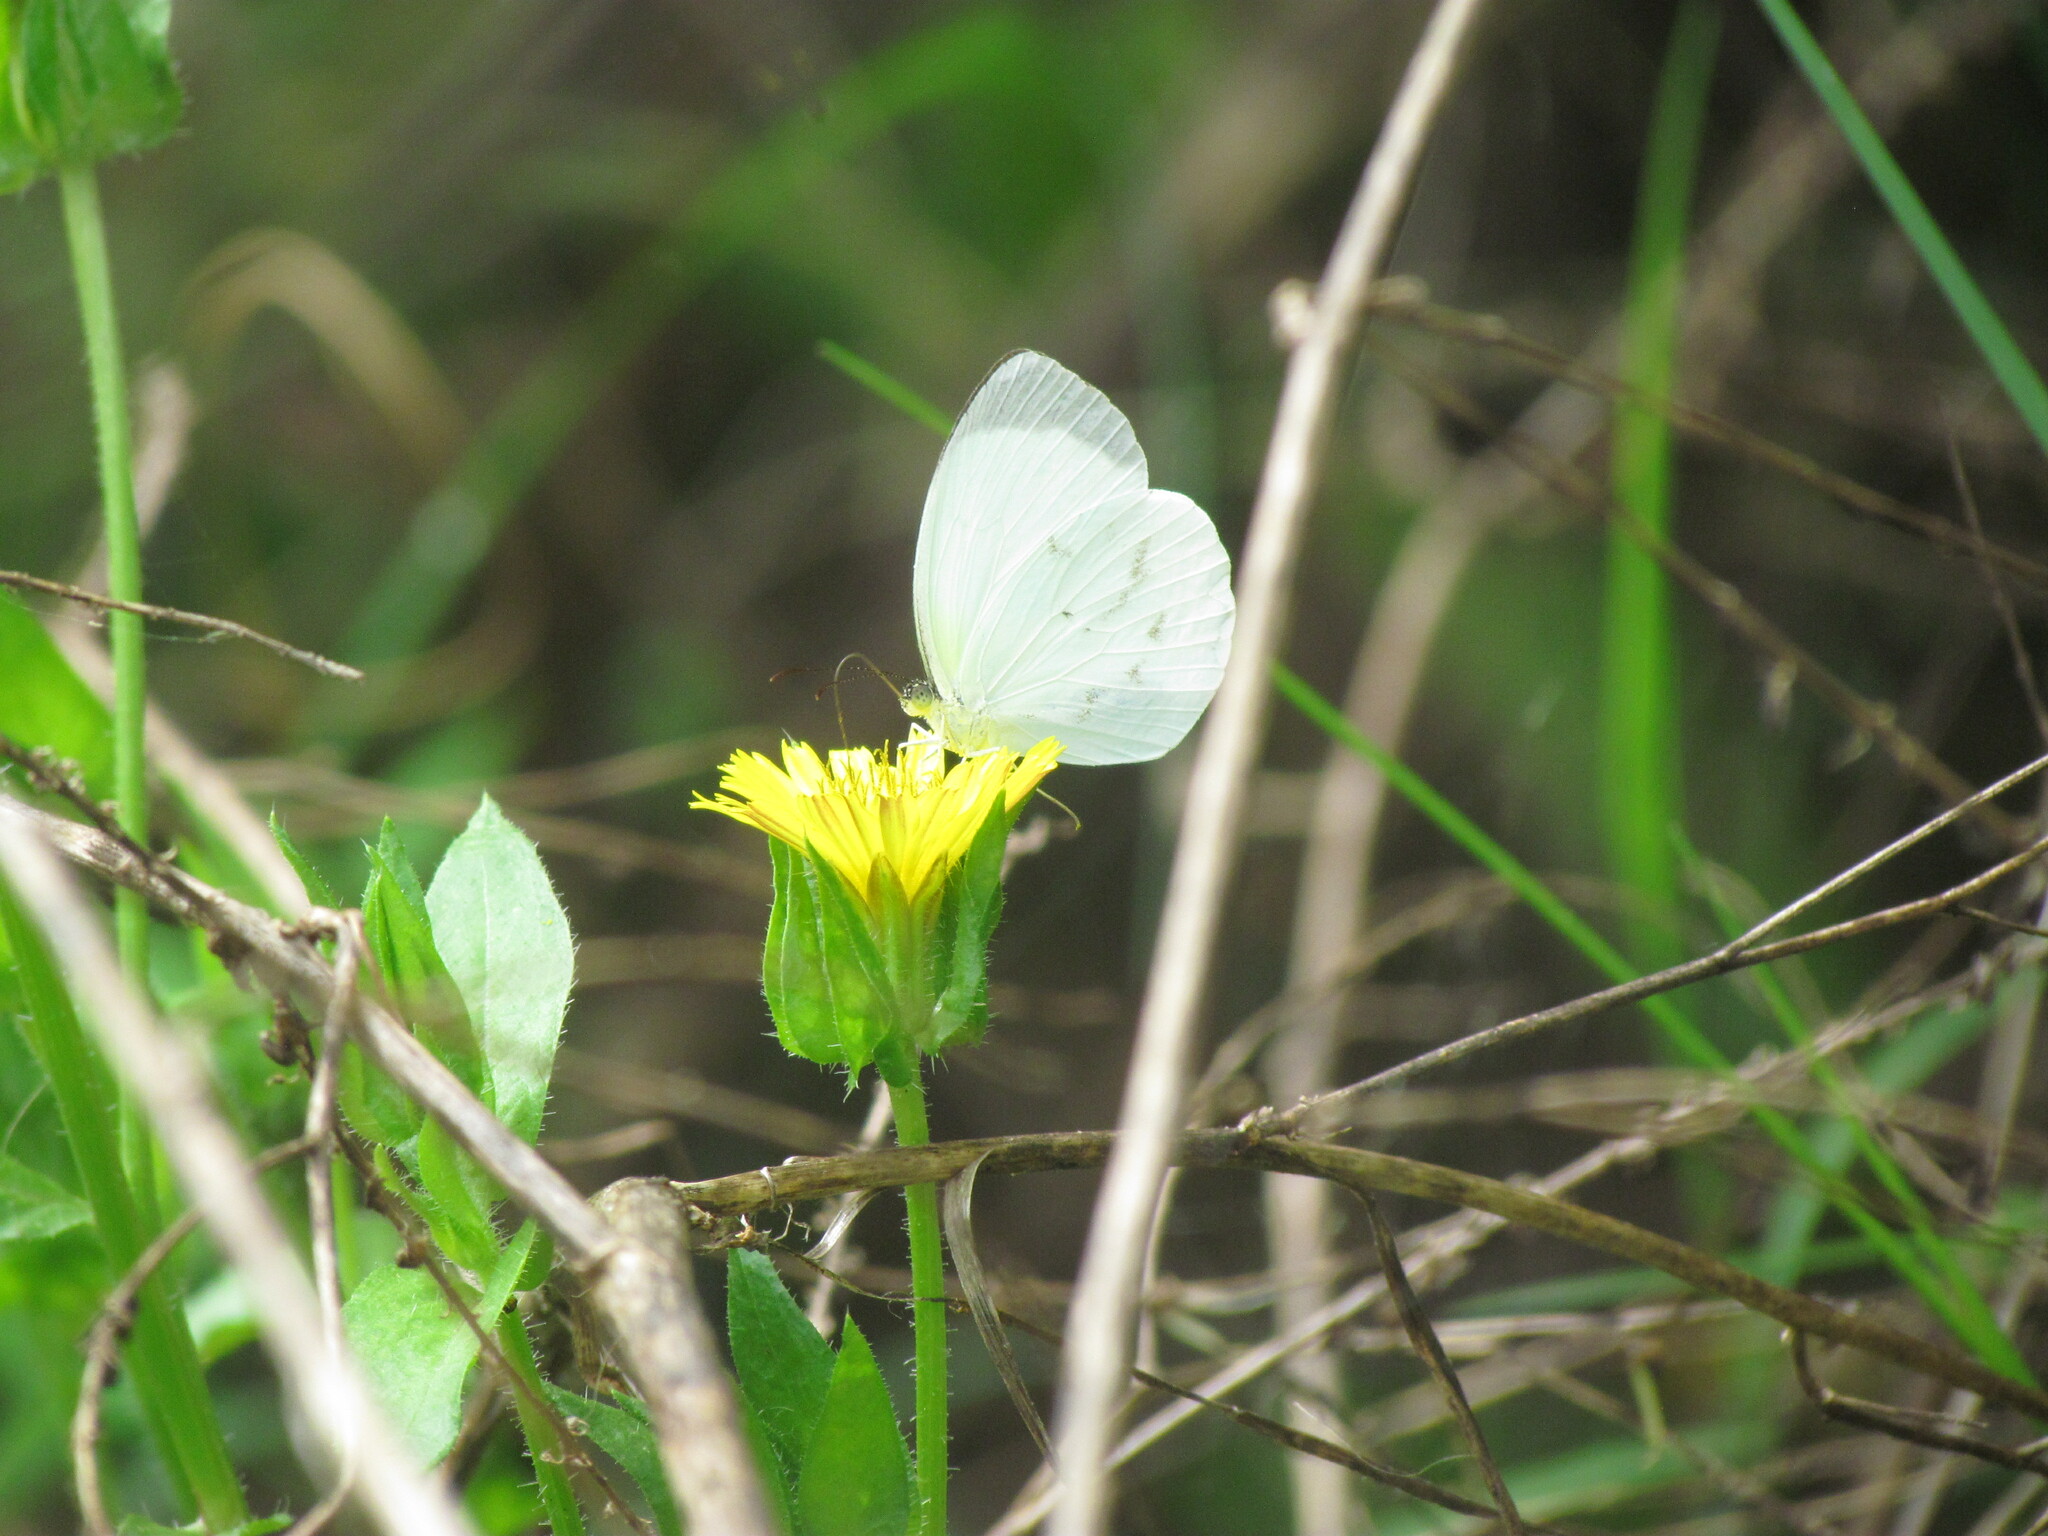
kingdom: Animalia
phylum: Arthropoda
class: Insecta
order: Lepidoptera
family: Pieridae
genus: Abaeis
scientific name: Abaeis albula
